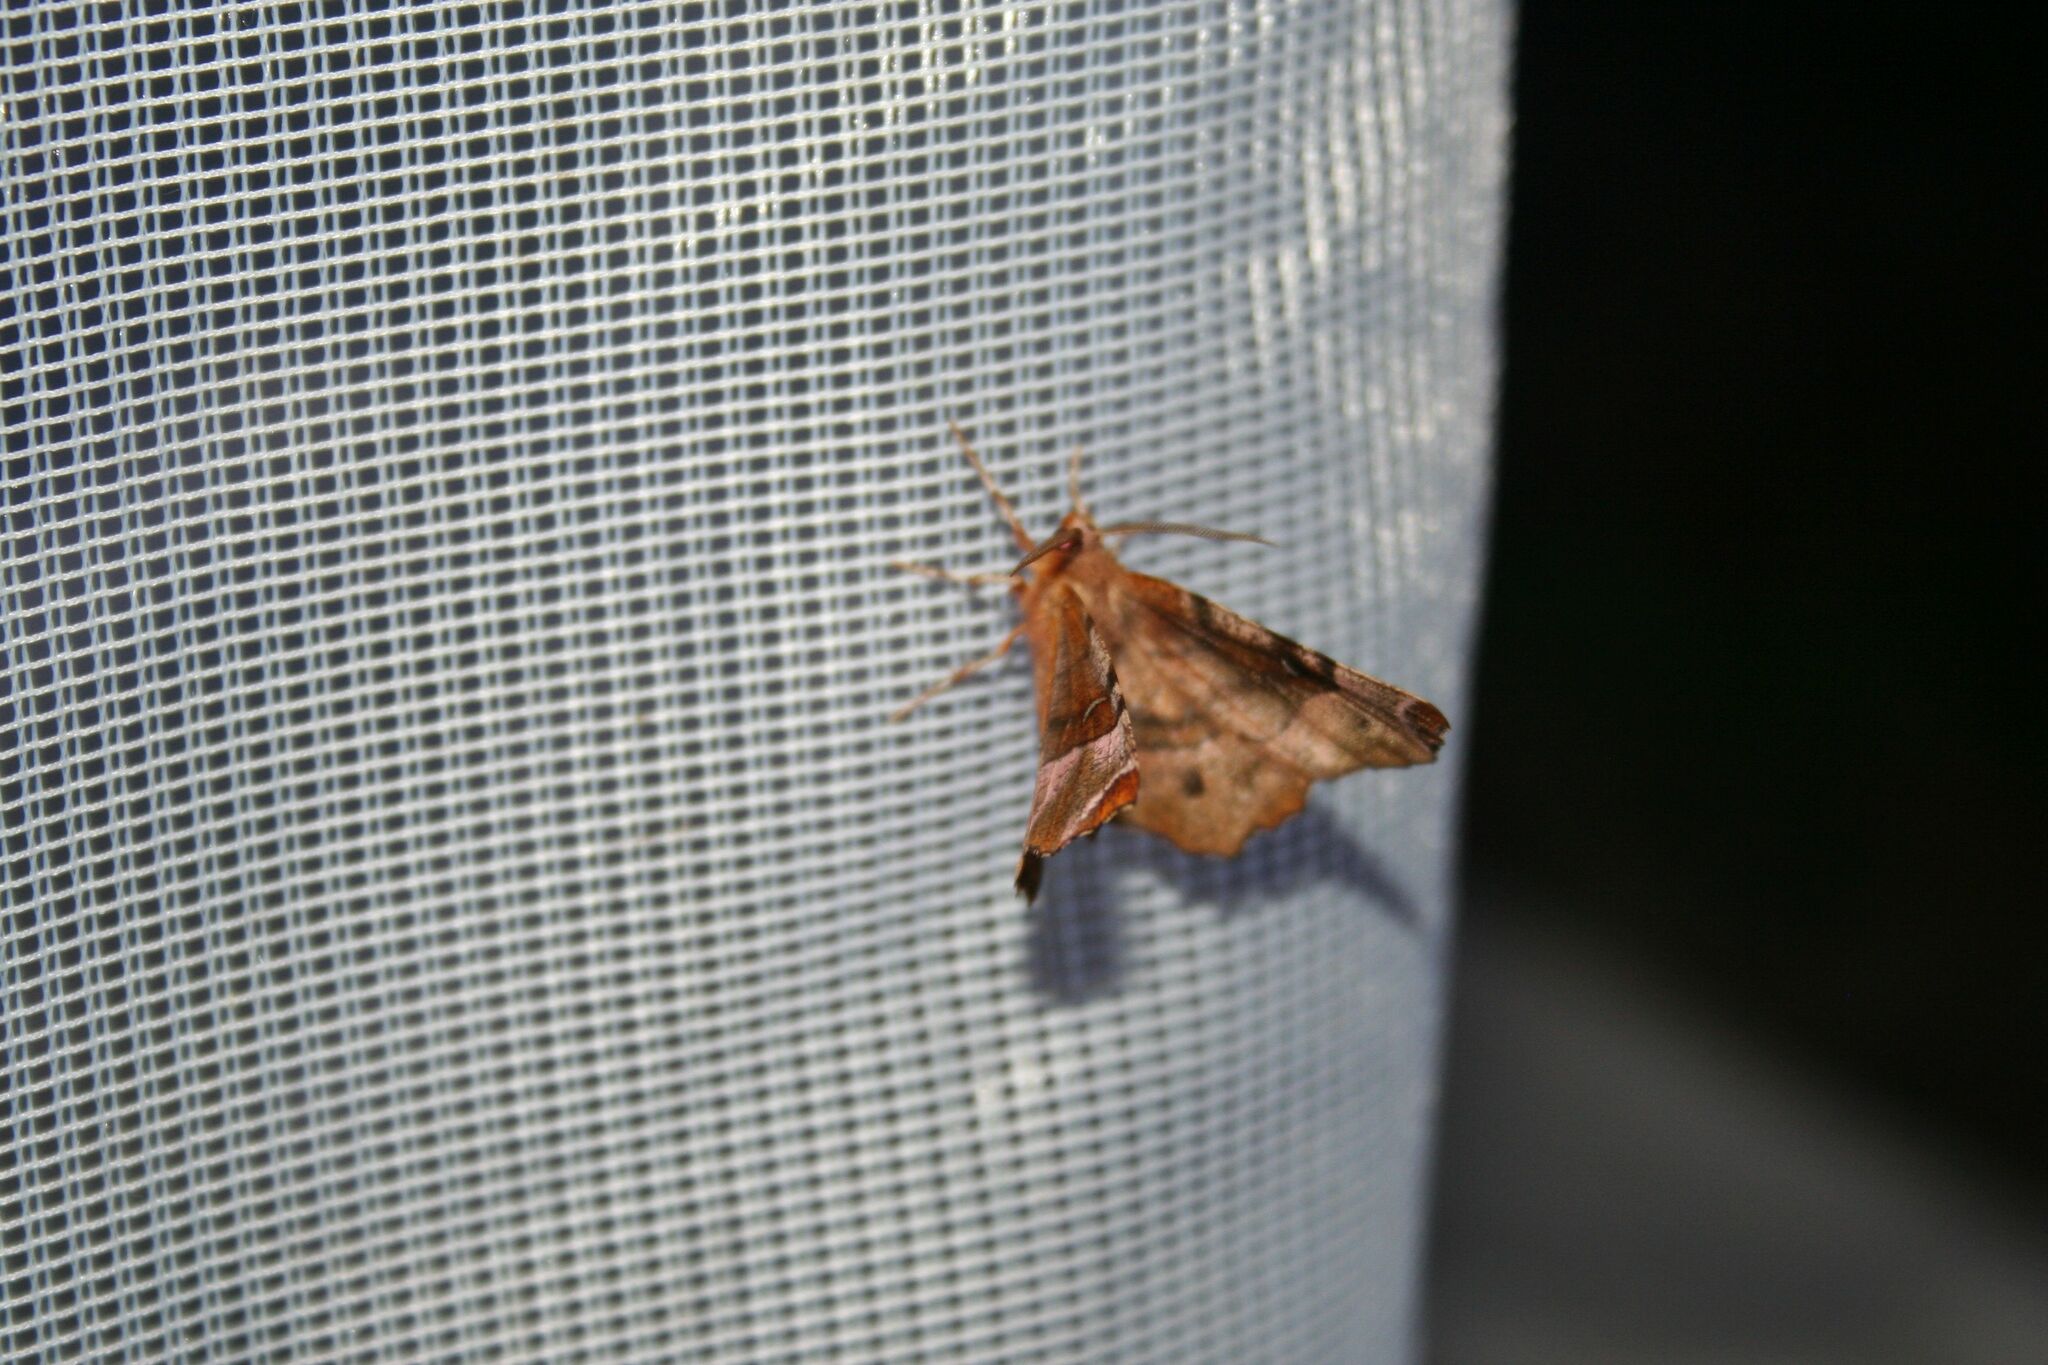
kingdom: Animalia
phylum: Arthropoda
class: Insecta
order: Lepidoptera
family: Geometridae
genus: Selenia
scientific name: Selenia tetralunaria
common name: Purple thorn
